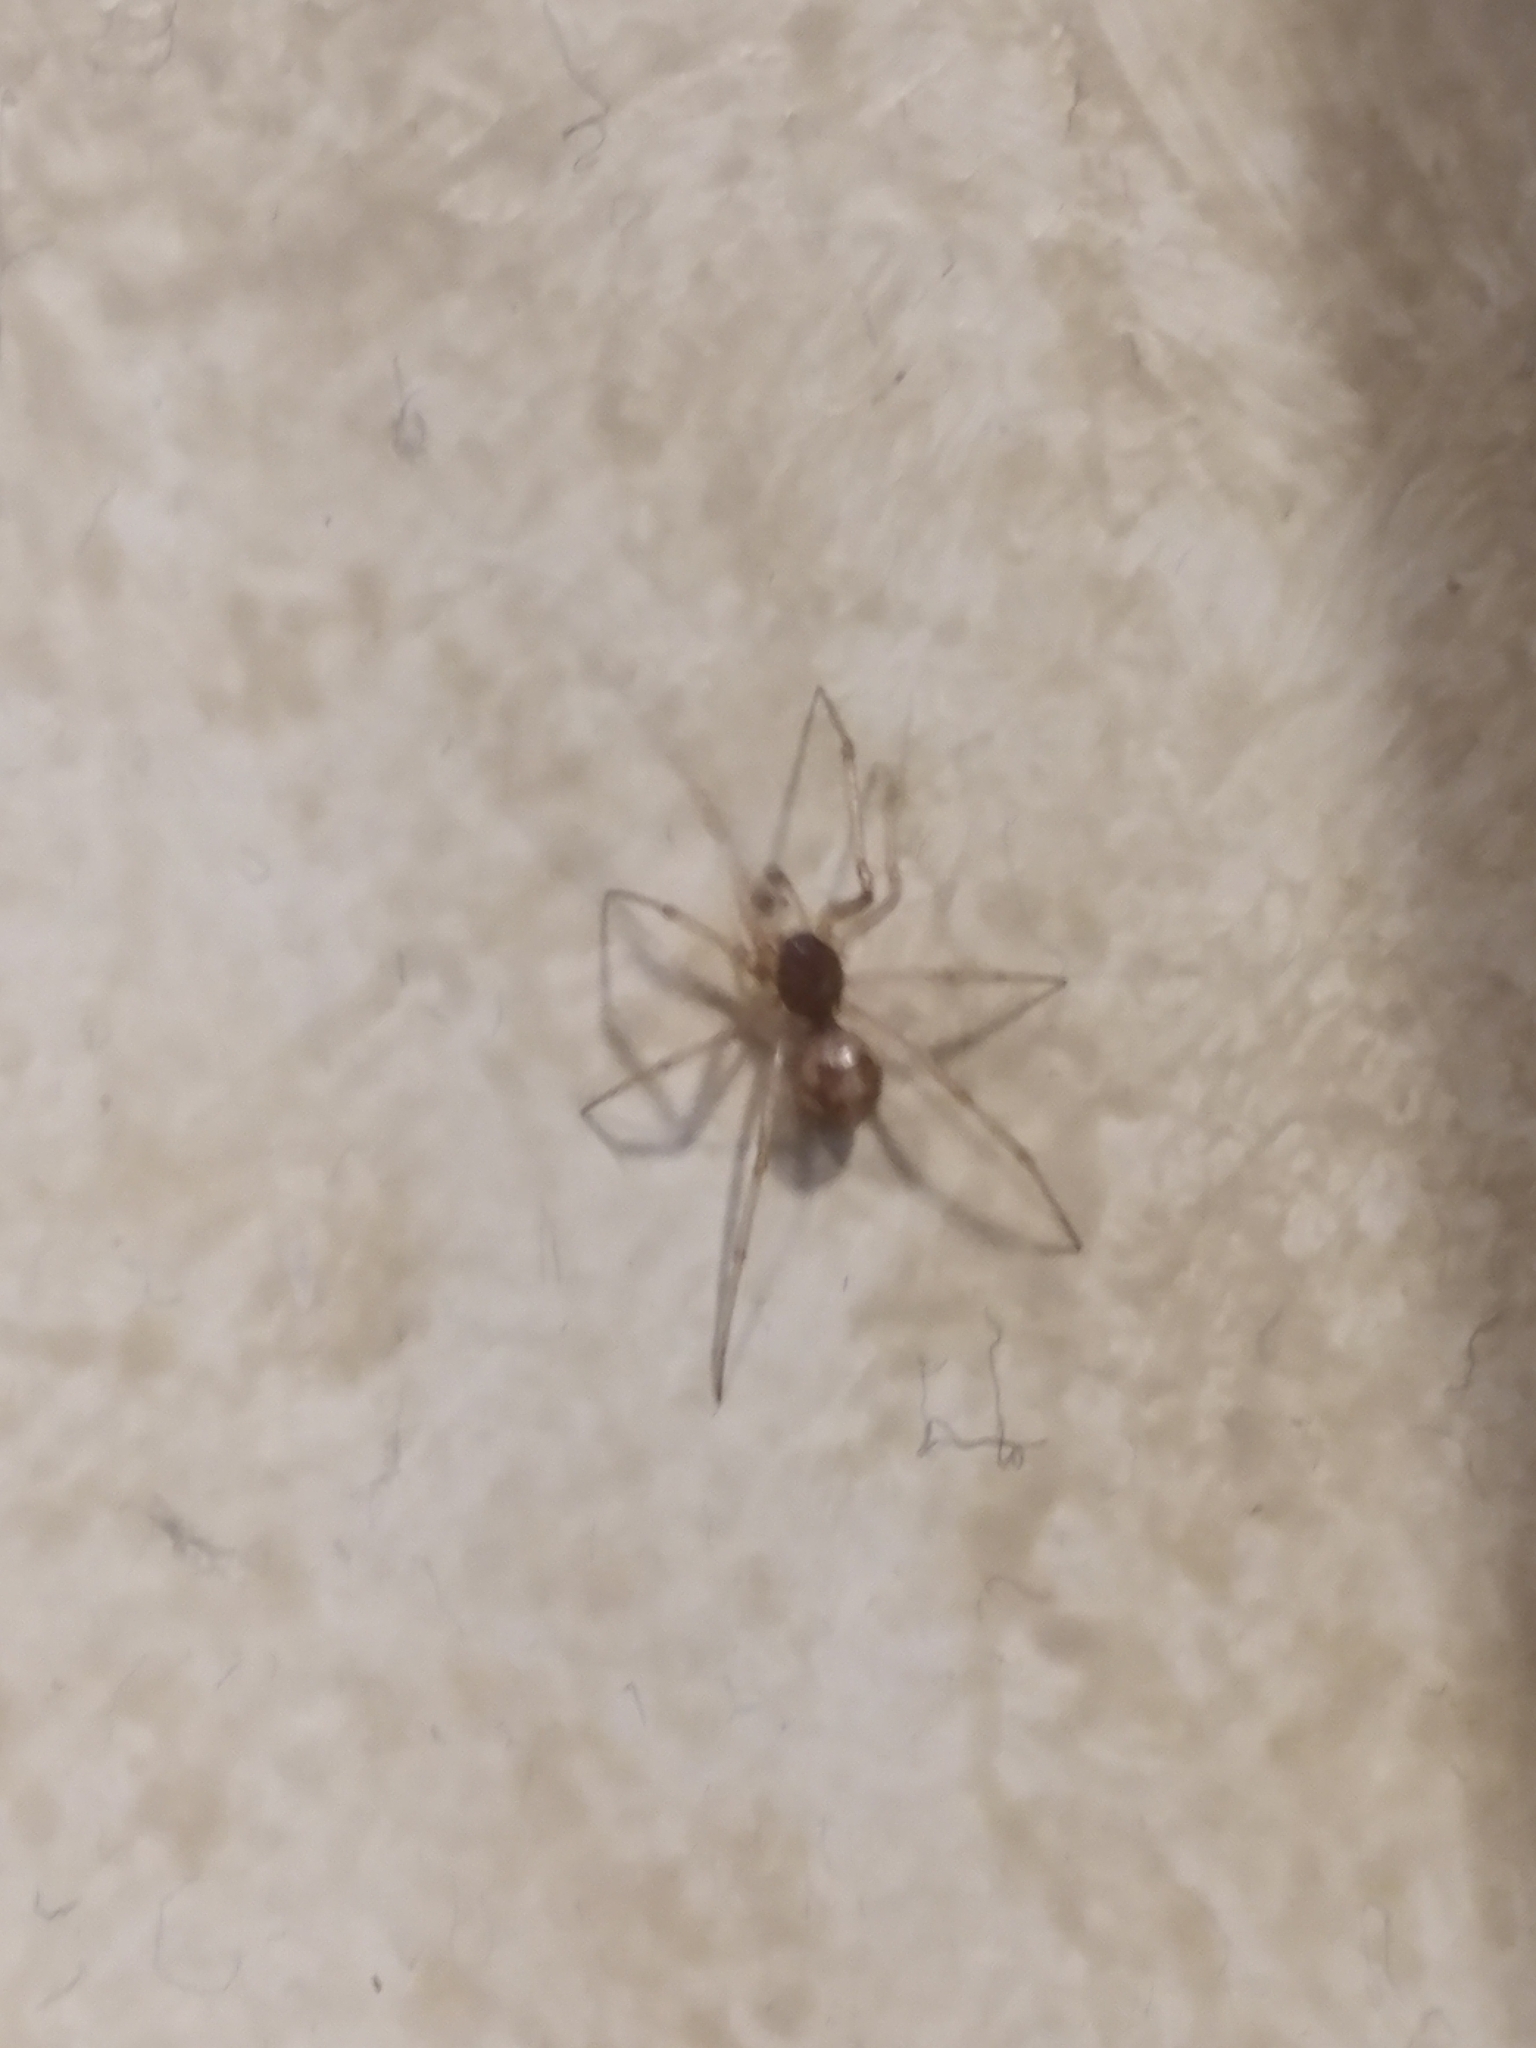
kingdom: Animalia
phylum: Arthropoda
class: Arachnida
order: Araneae
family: Theridiidae
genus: Steatoda
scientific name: Steatoda triangulosa
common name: Triangulate bud spider
